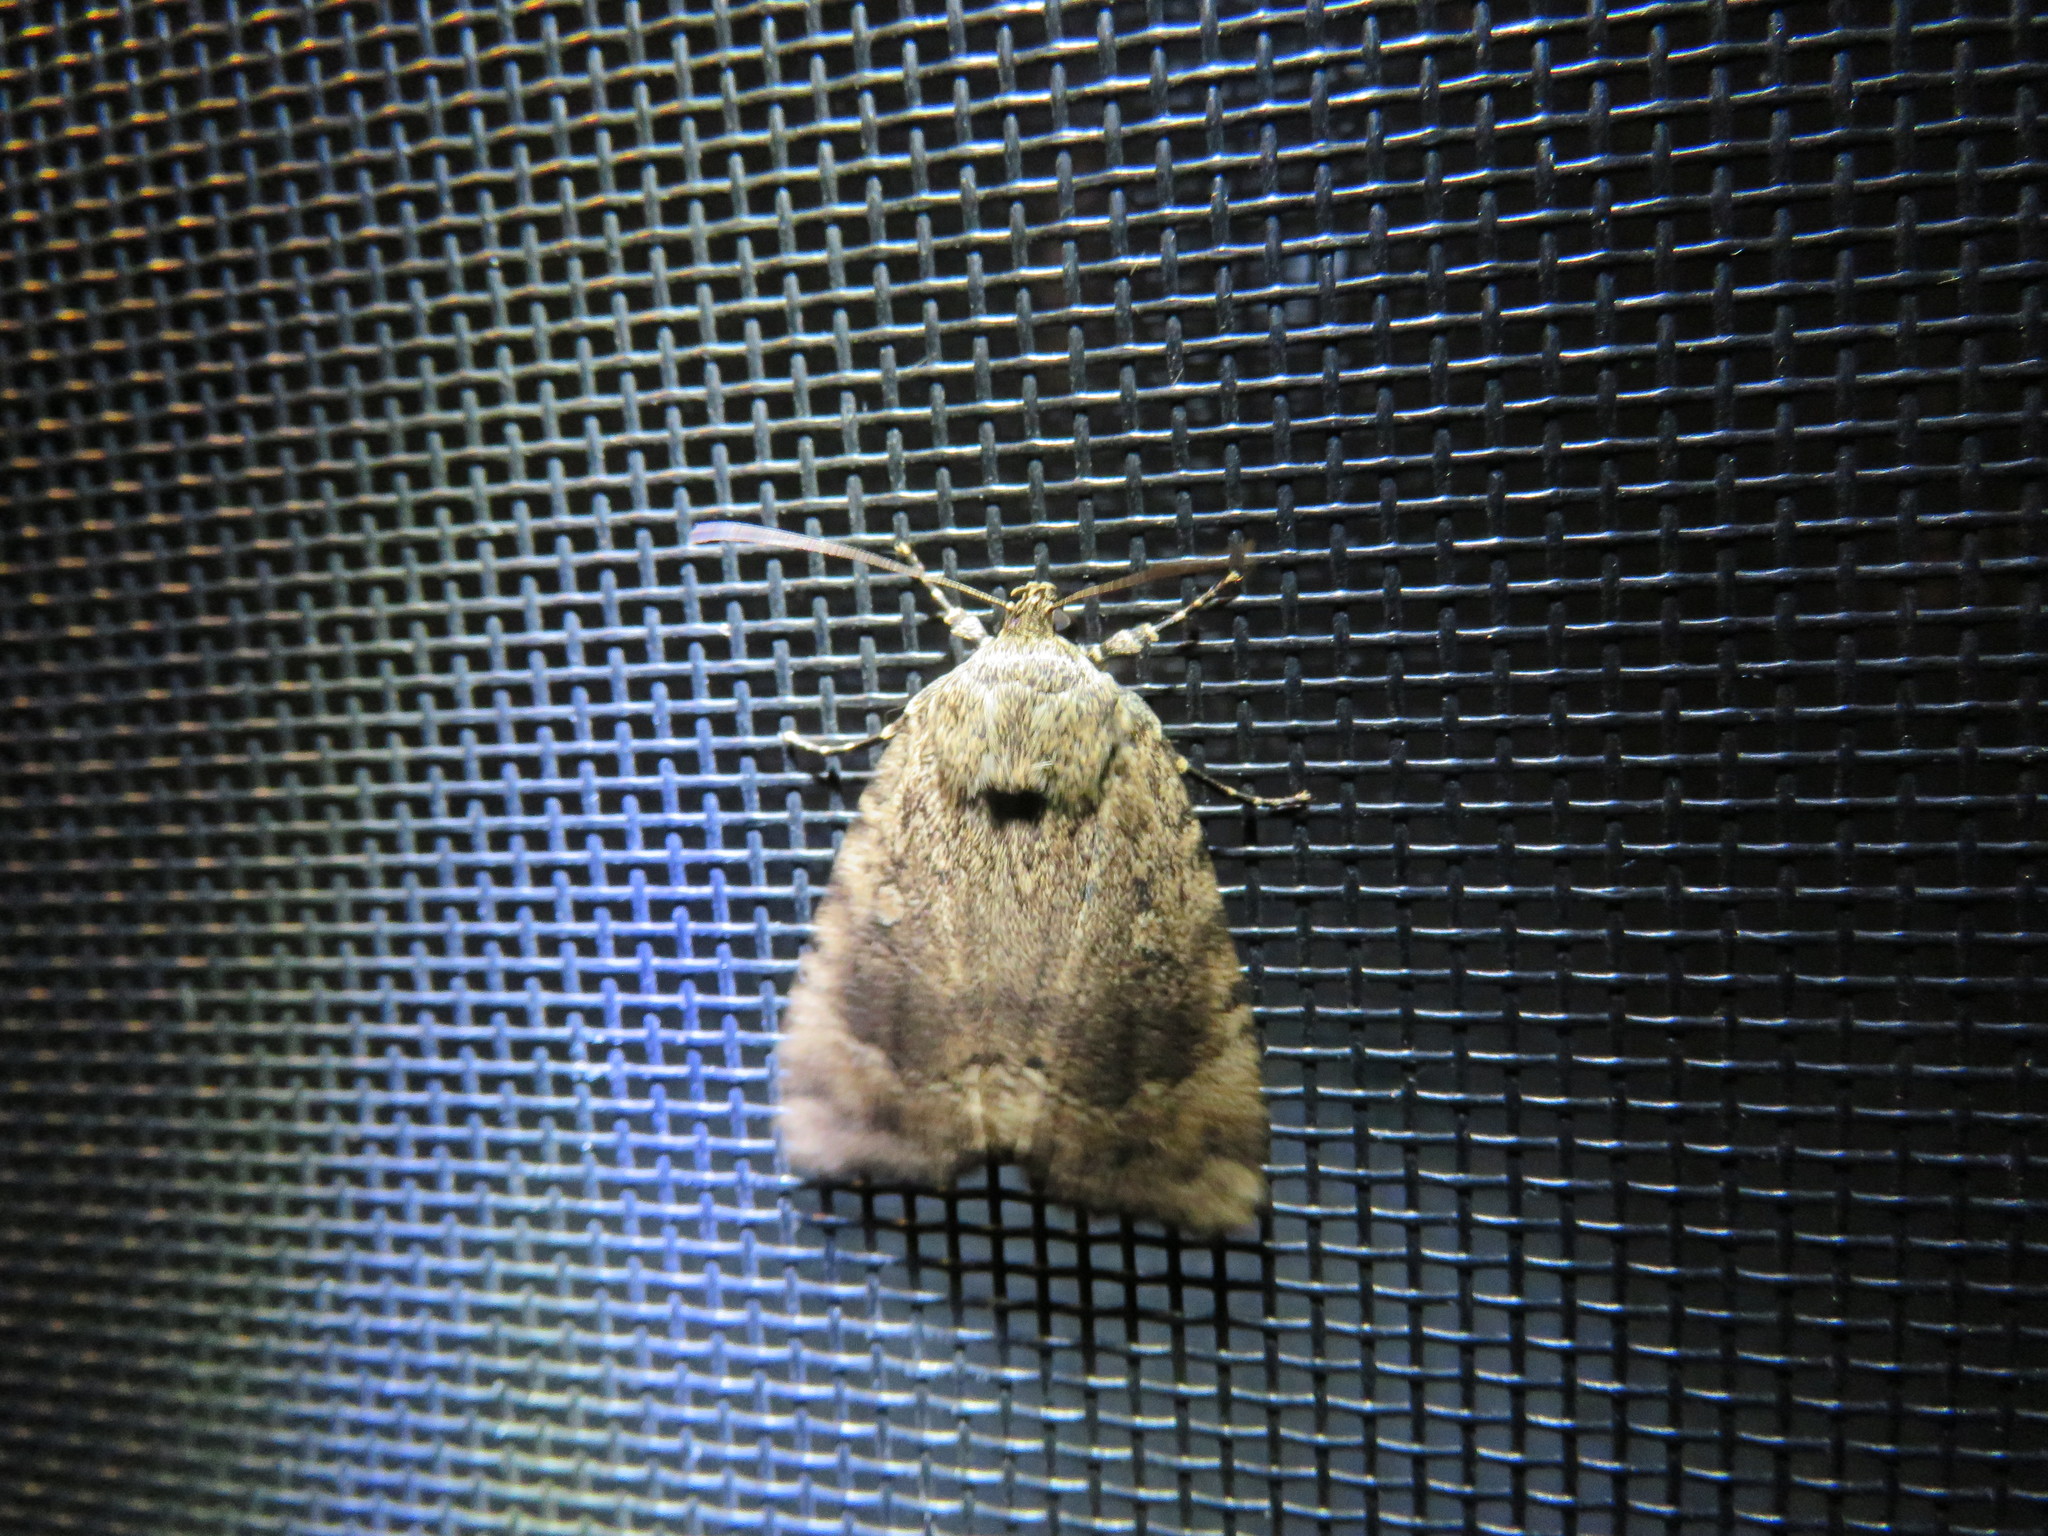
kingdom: Animalia
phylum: Arthropoda
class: Insecta
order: Lepidoptera
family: Noctuidae
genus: Amphipyra
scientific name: Amphipyra pyramidoides
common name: American copper underwing
